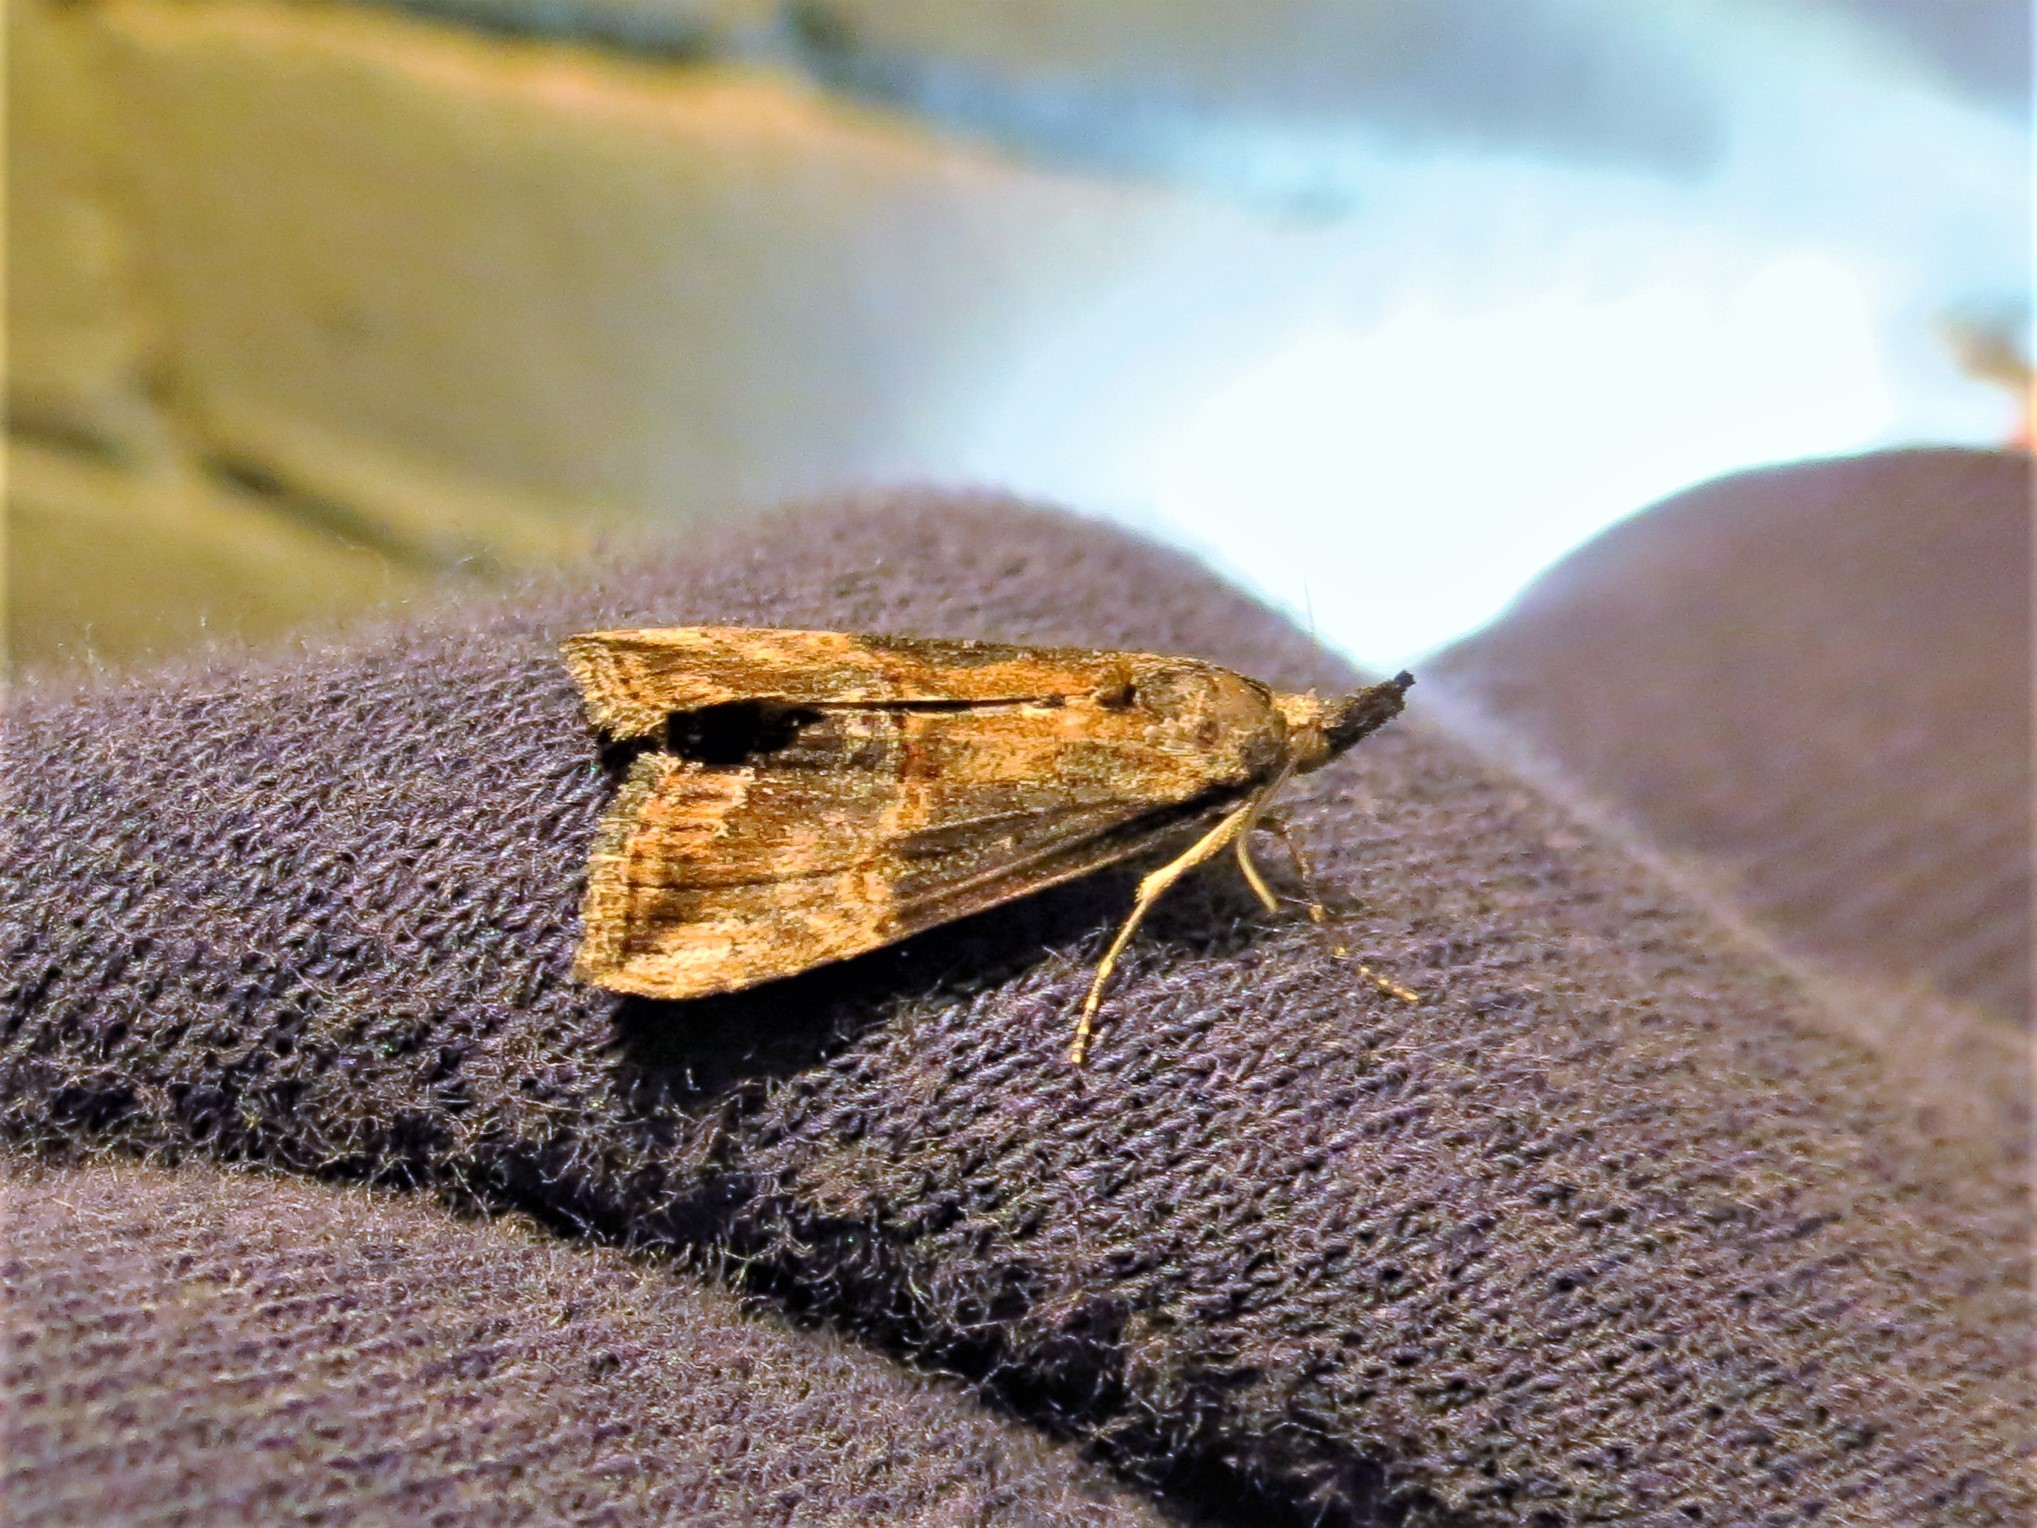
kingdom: Animalia
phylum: Arthropoda
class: Insecta
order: Lepidoptera
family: Erebidae
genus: Hypena
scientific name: Hypena scabra
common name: Green cloverworm
